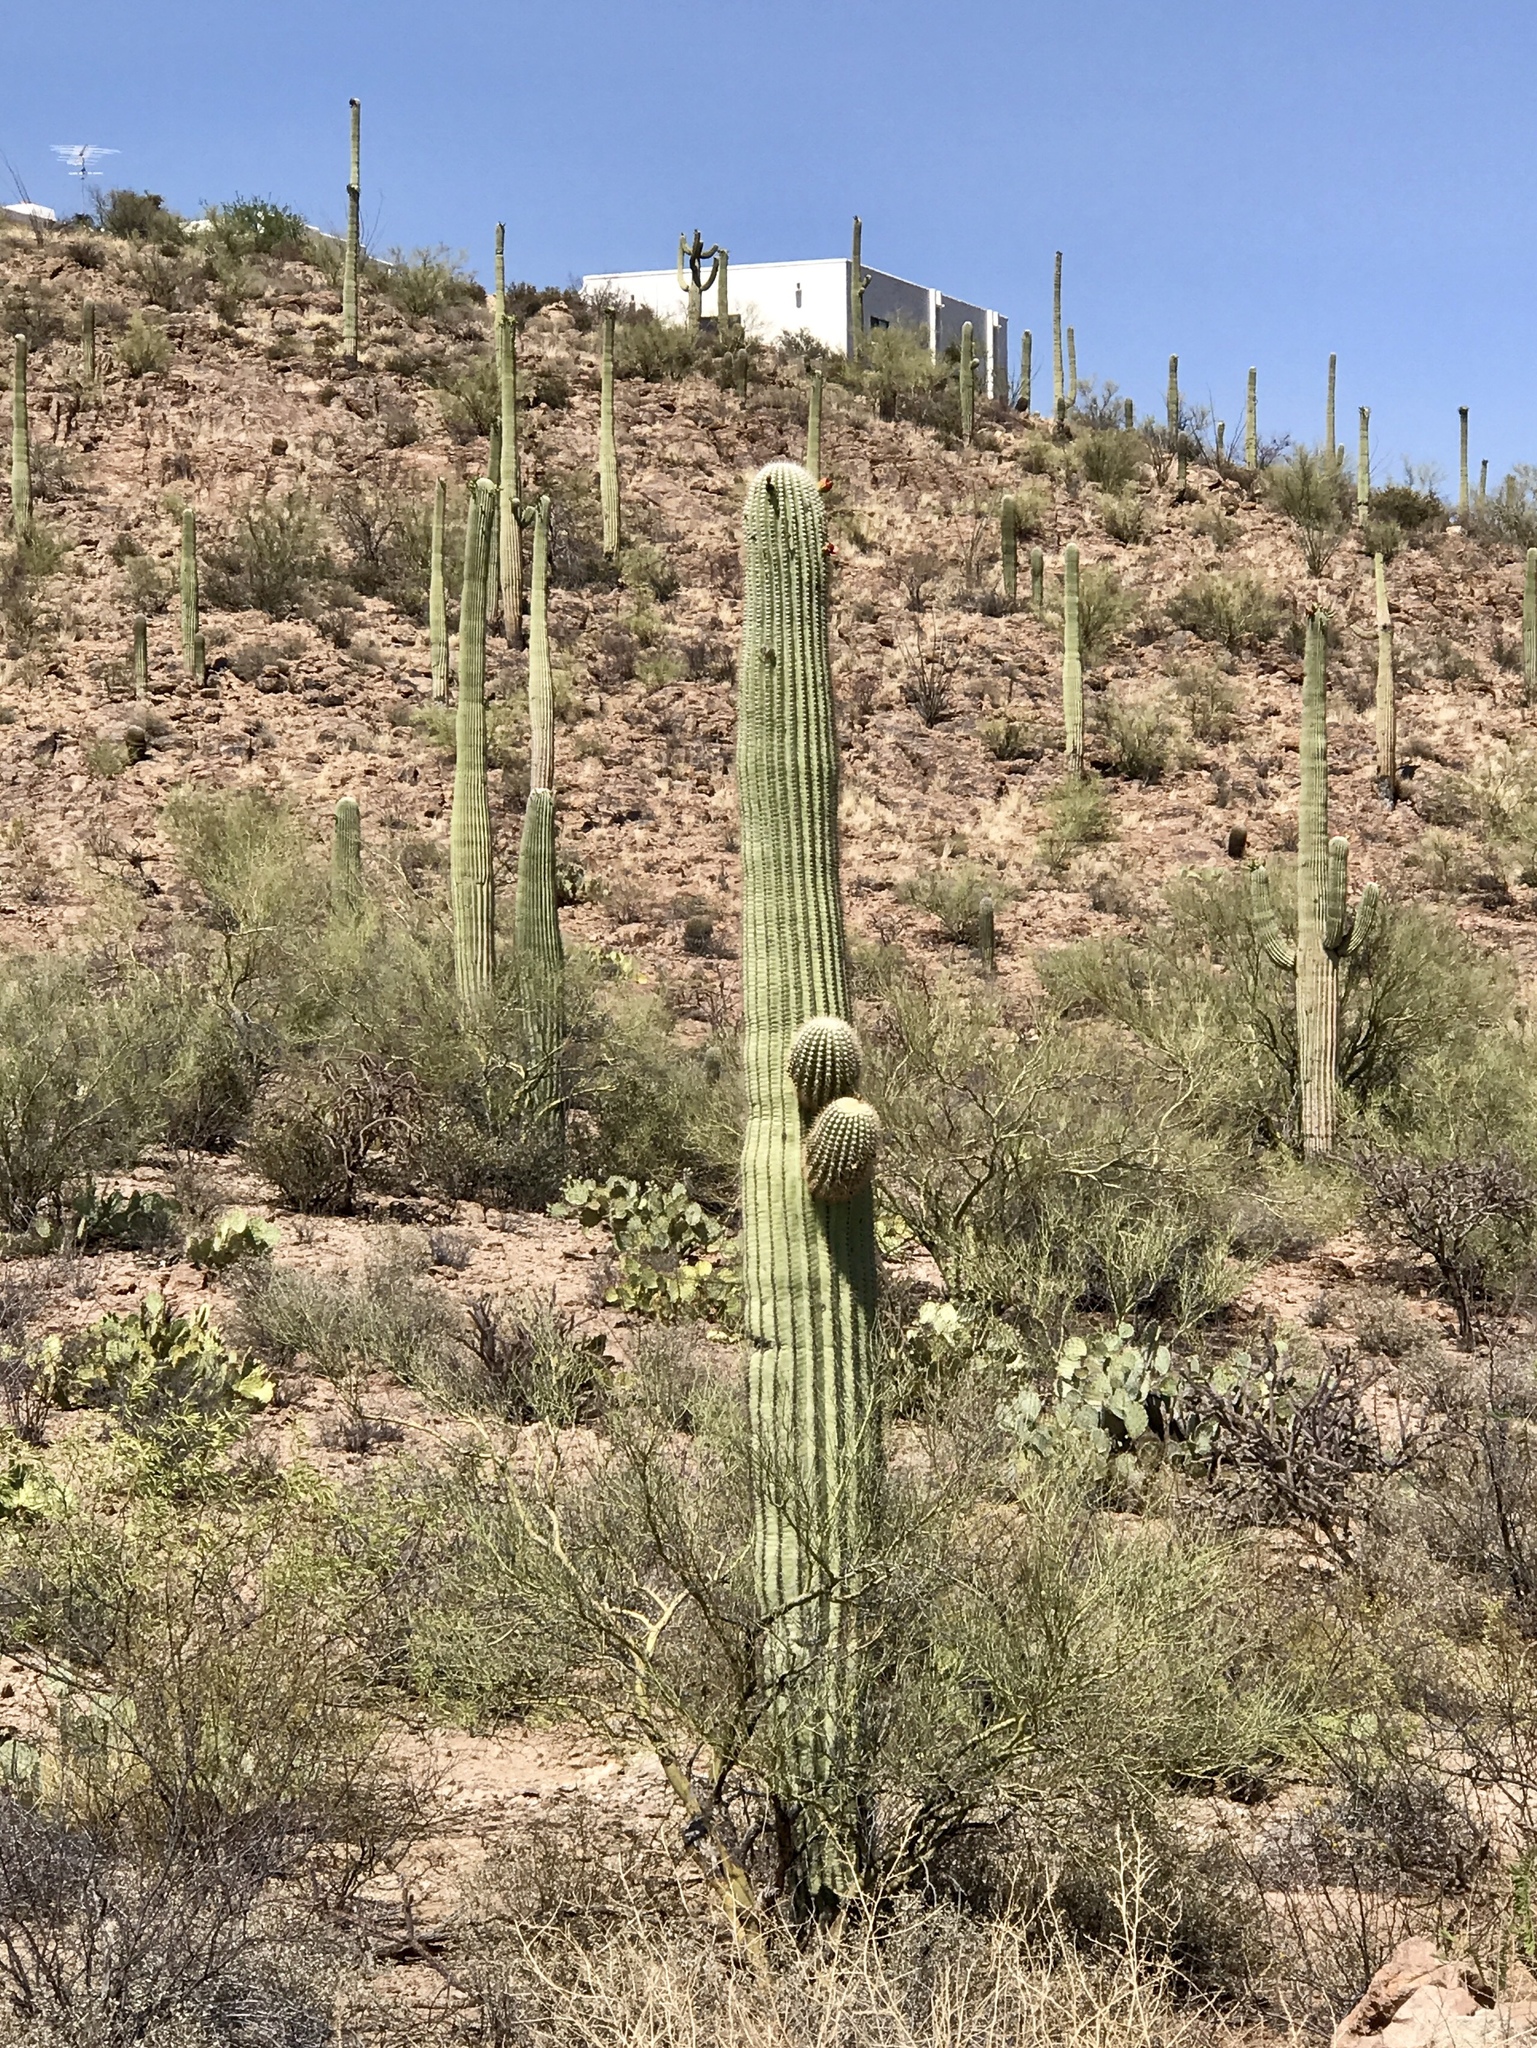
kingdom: Plantae
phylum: Tracheophyta
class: Magnoliopsida
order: Caryophyllales
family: Cactaceae
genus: Carnegiea
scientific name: Carnegiea gigantea
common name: Saguaro
